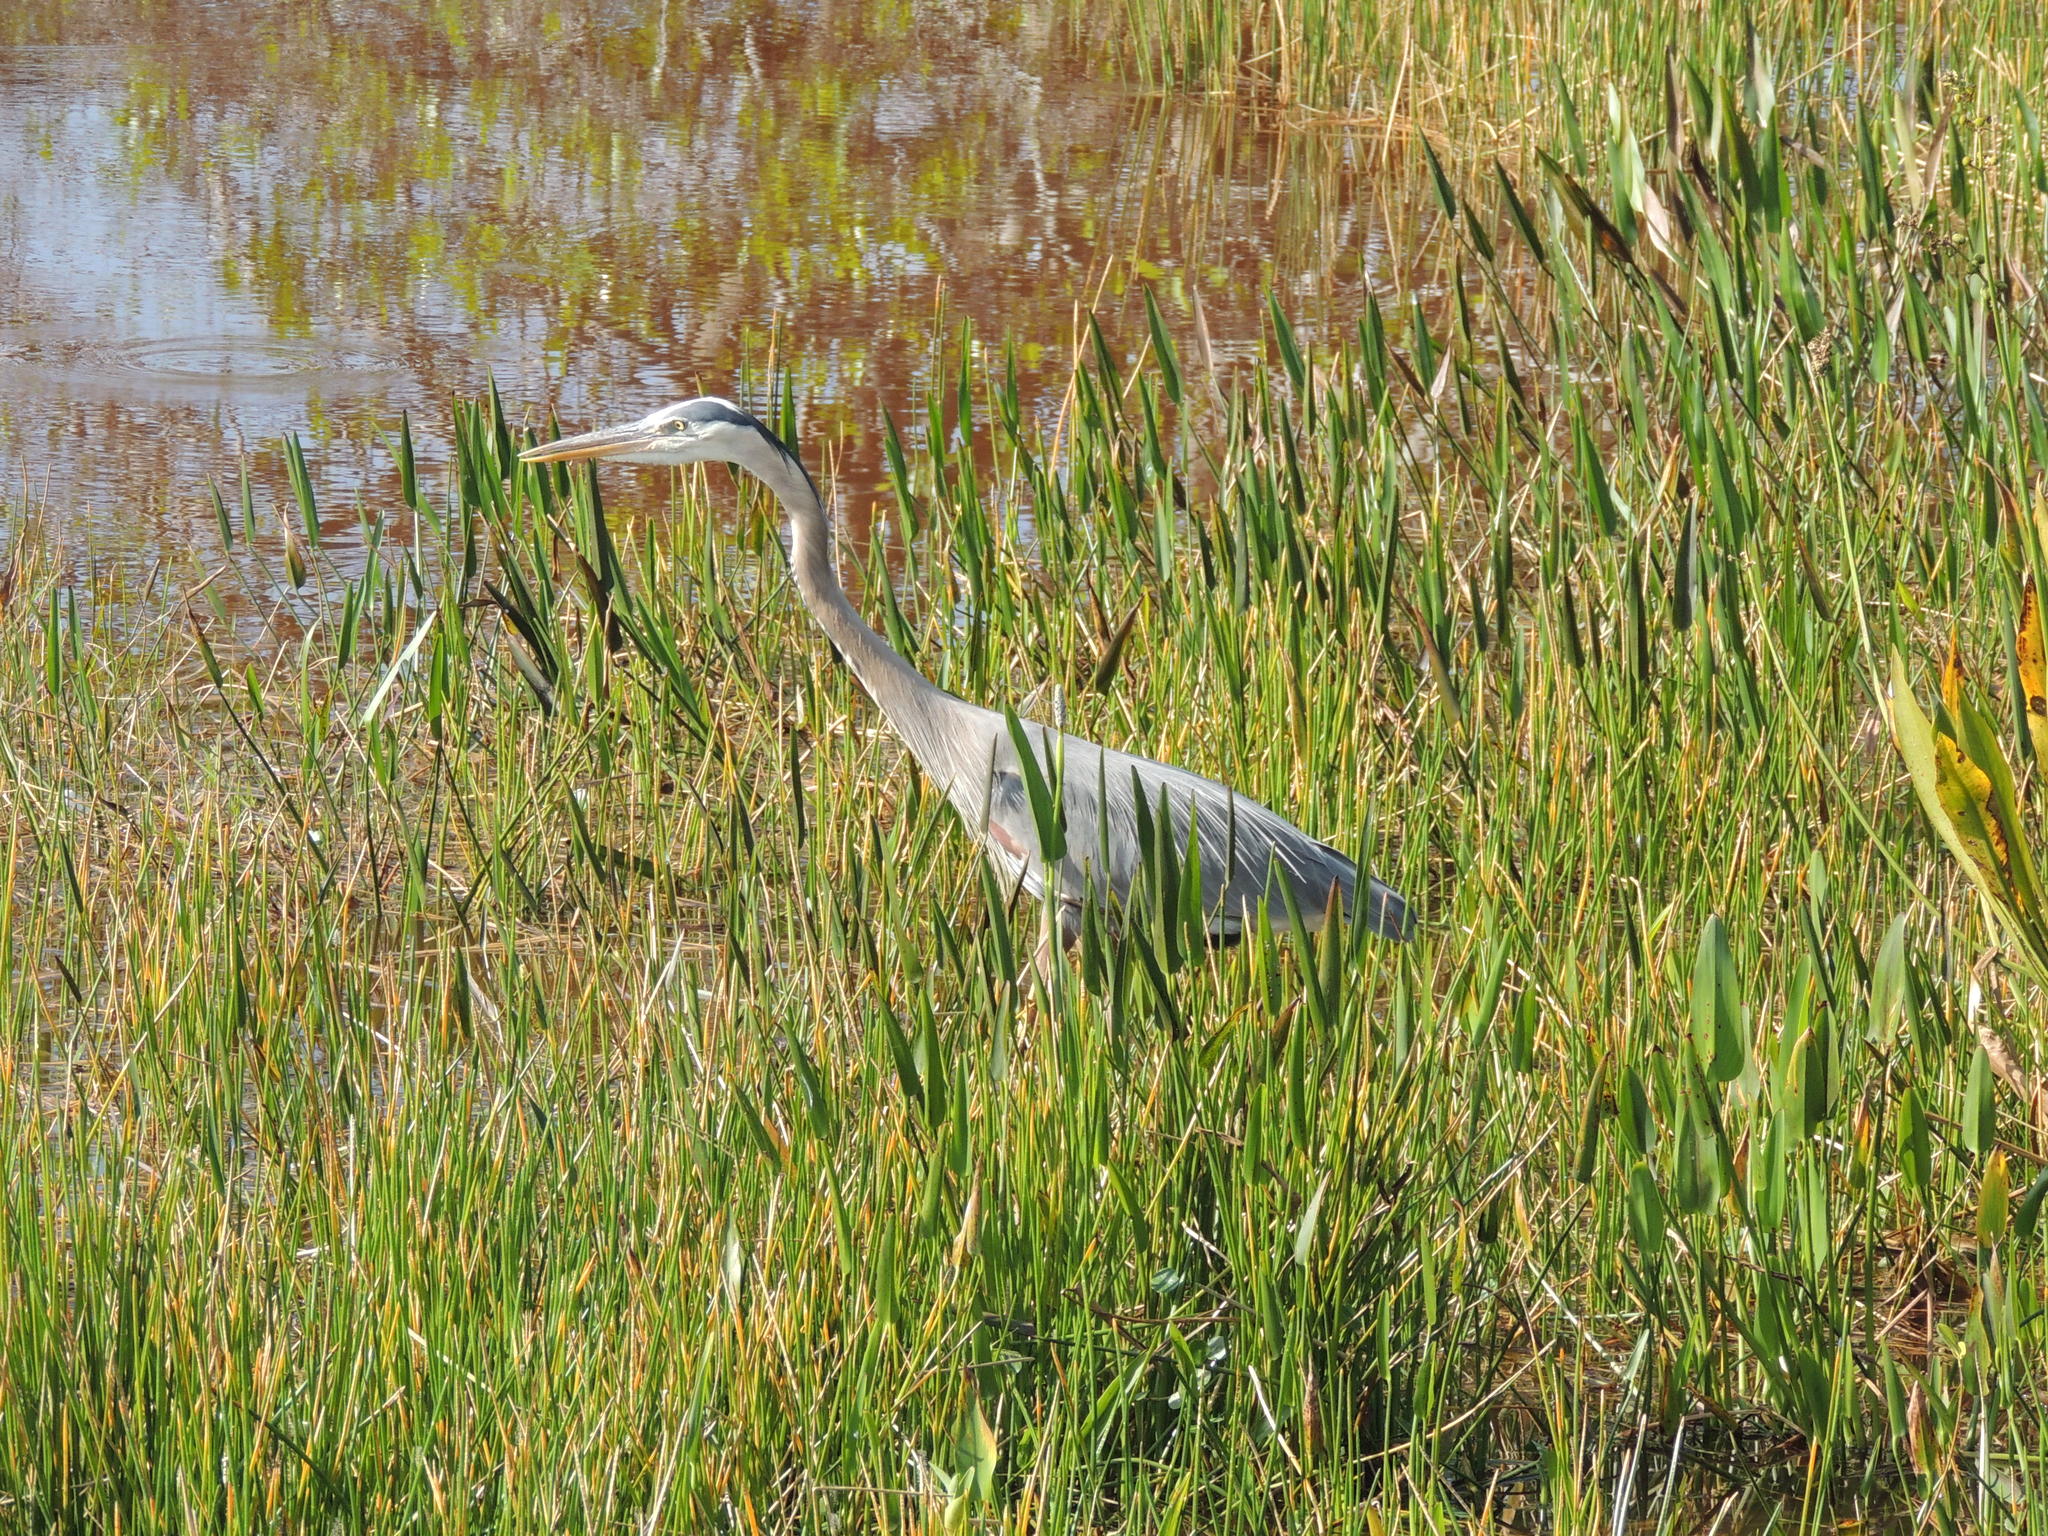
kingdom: Animalia
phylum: Chordata
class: Aves
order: Pelecaniformes
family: Ardeidae
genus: Ardea
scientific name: Ardea herodias
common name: Great blue heron
